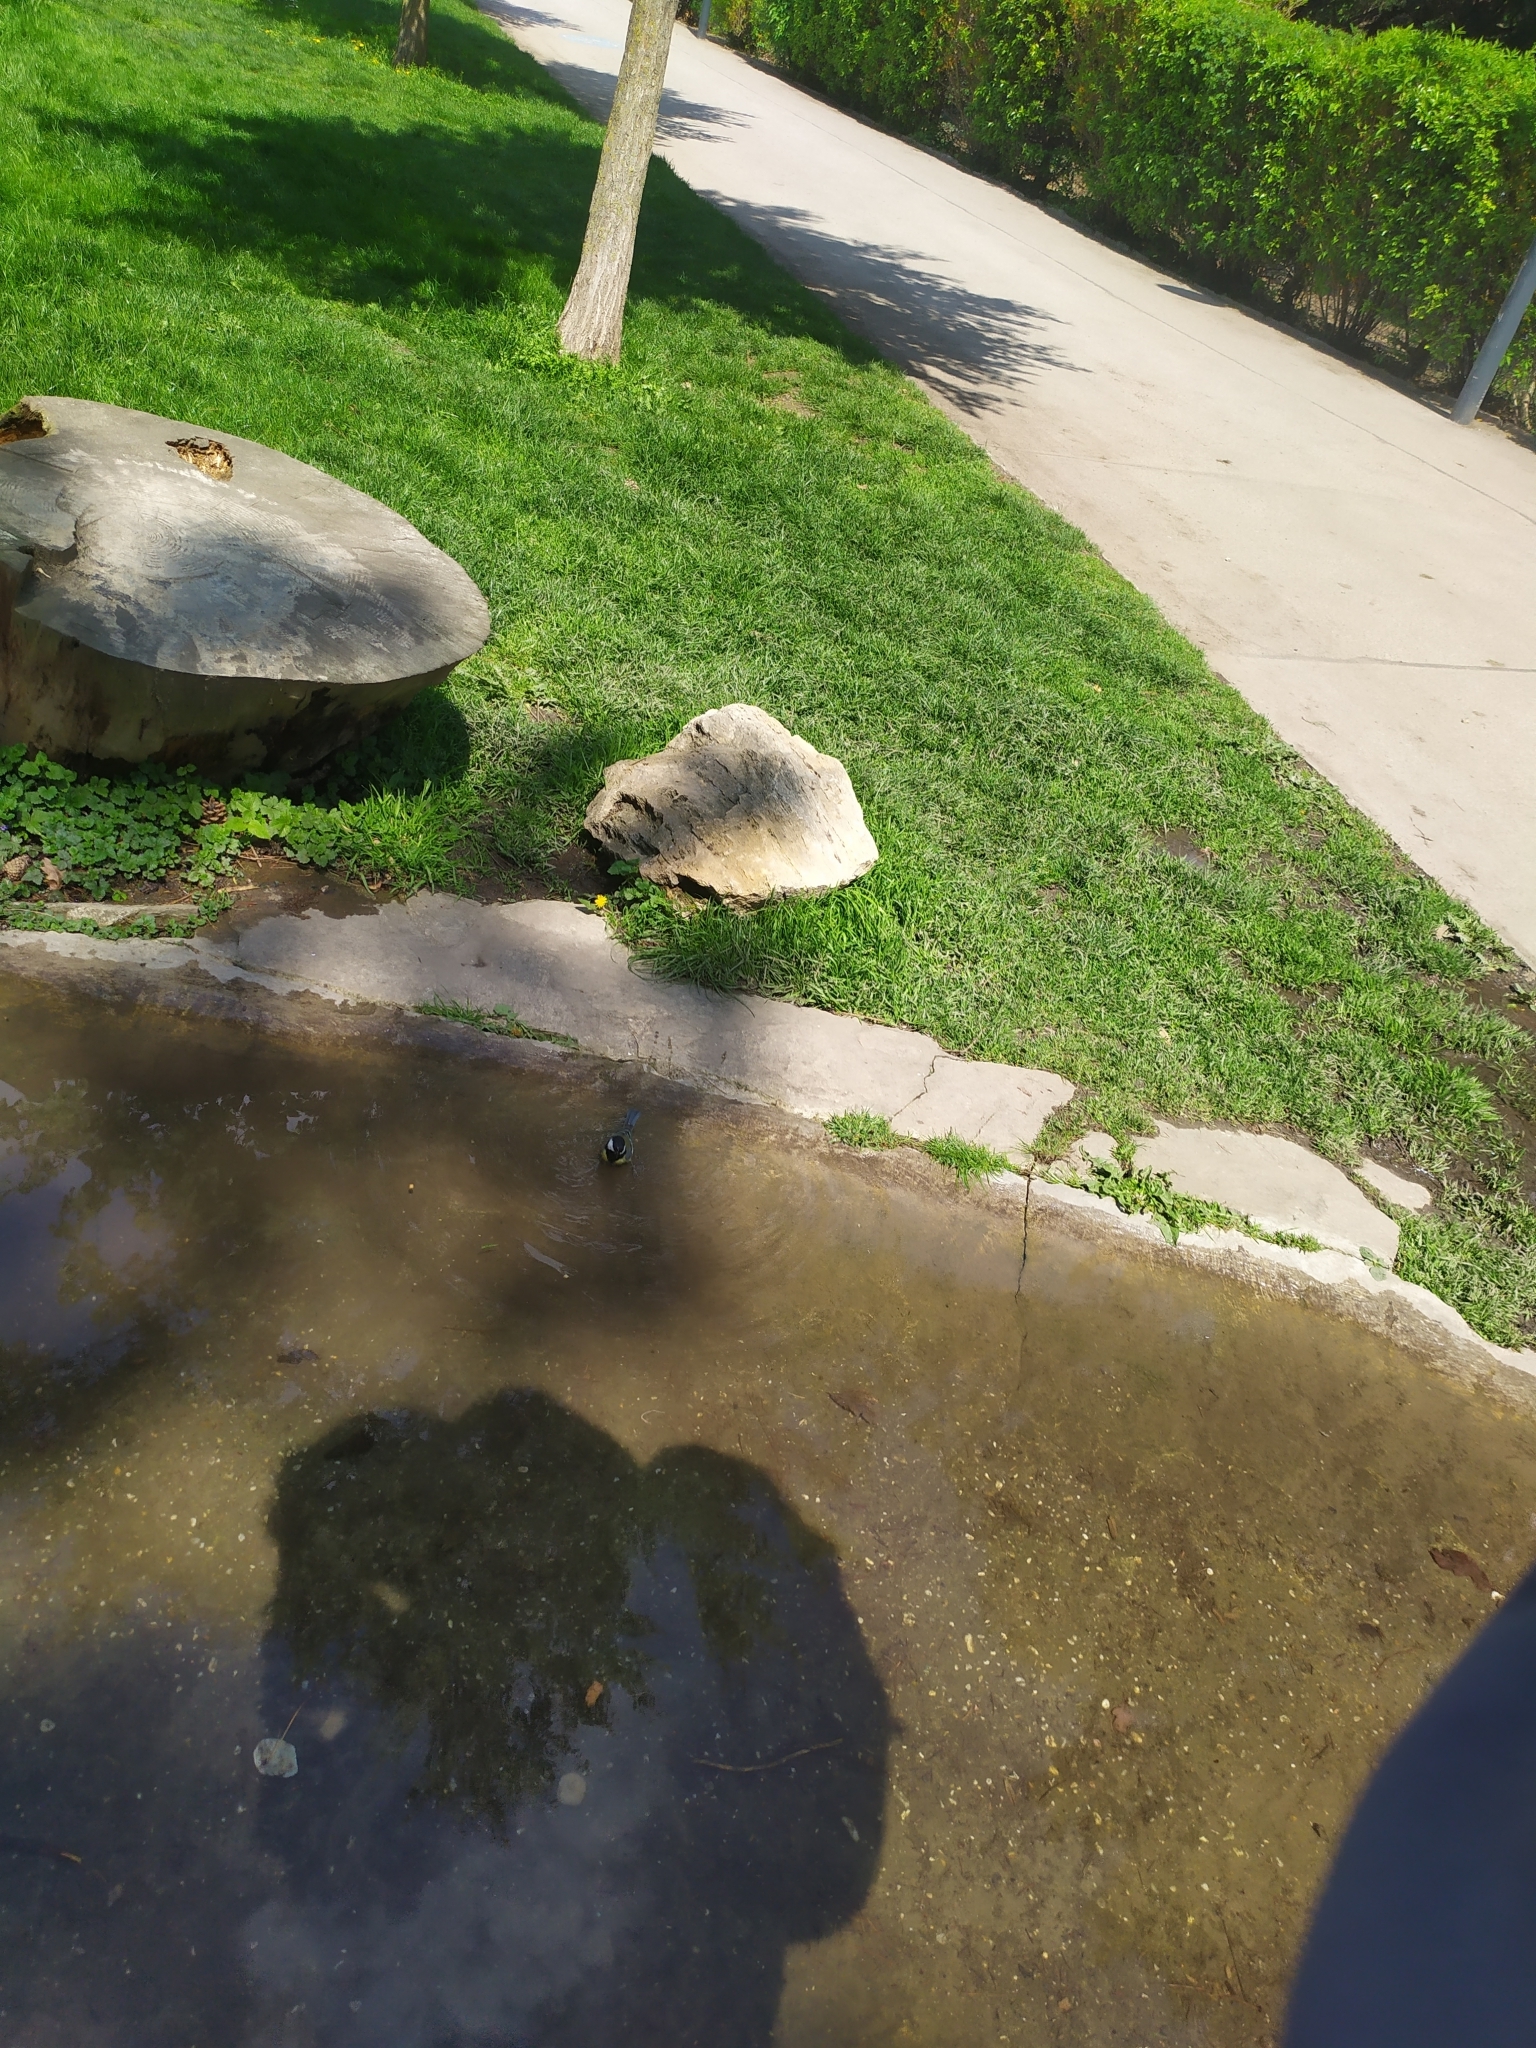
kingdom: Animalia
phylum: Chordata
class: Aves
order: Passeriformes
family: Paridae
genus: Parus
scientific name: Parus major
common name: Great tit
